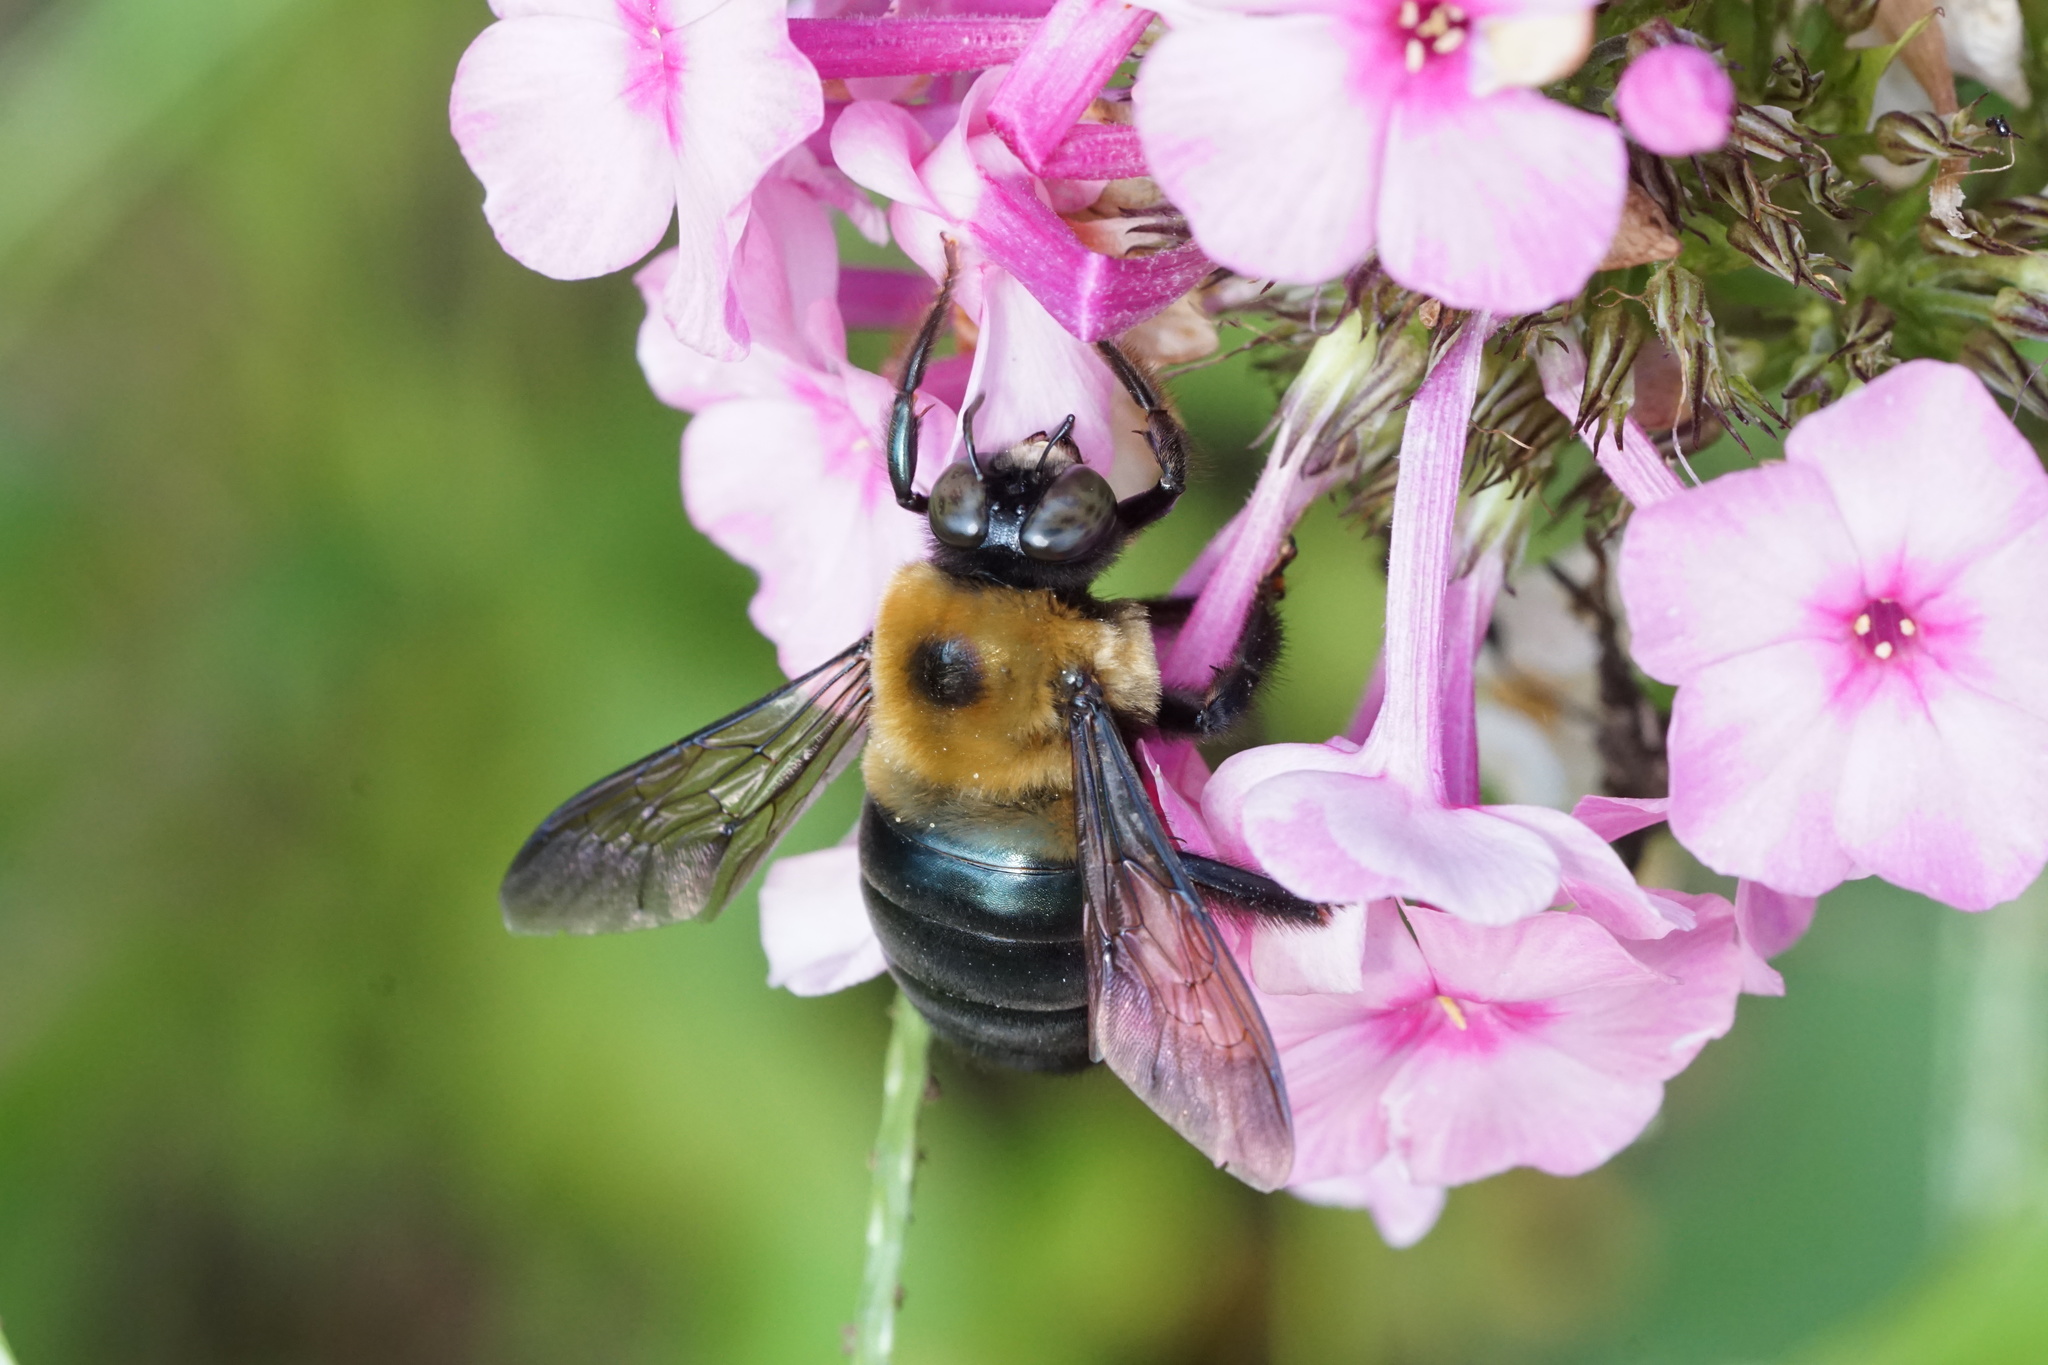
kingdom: Animalia
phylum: Arthropoda
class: Insecta
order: Hymenoptera
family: Apidae
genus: Xylocopa
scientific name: Xylocopa virginica
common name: Carpenter bee
